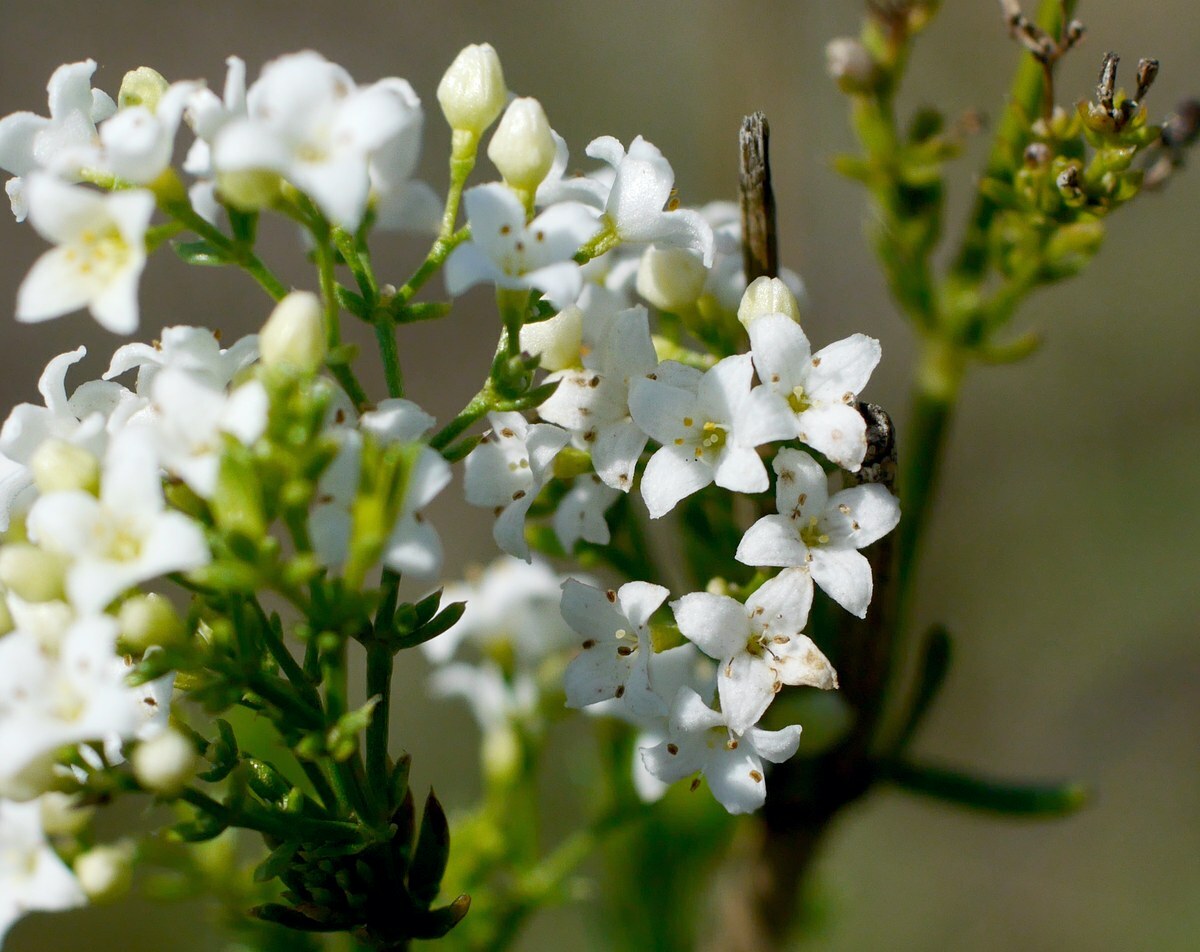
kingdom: Plantae
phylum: Tracheophyta
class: Magnoliopsida
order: Gentianales
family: Rubiaceae
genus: Galium
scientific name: Galium volhynicum
